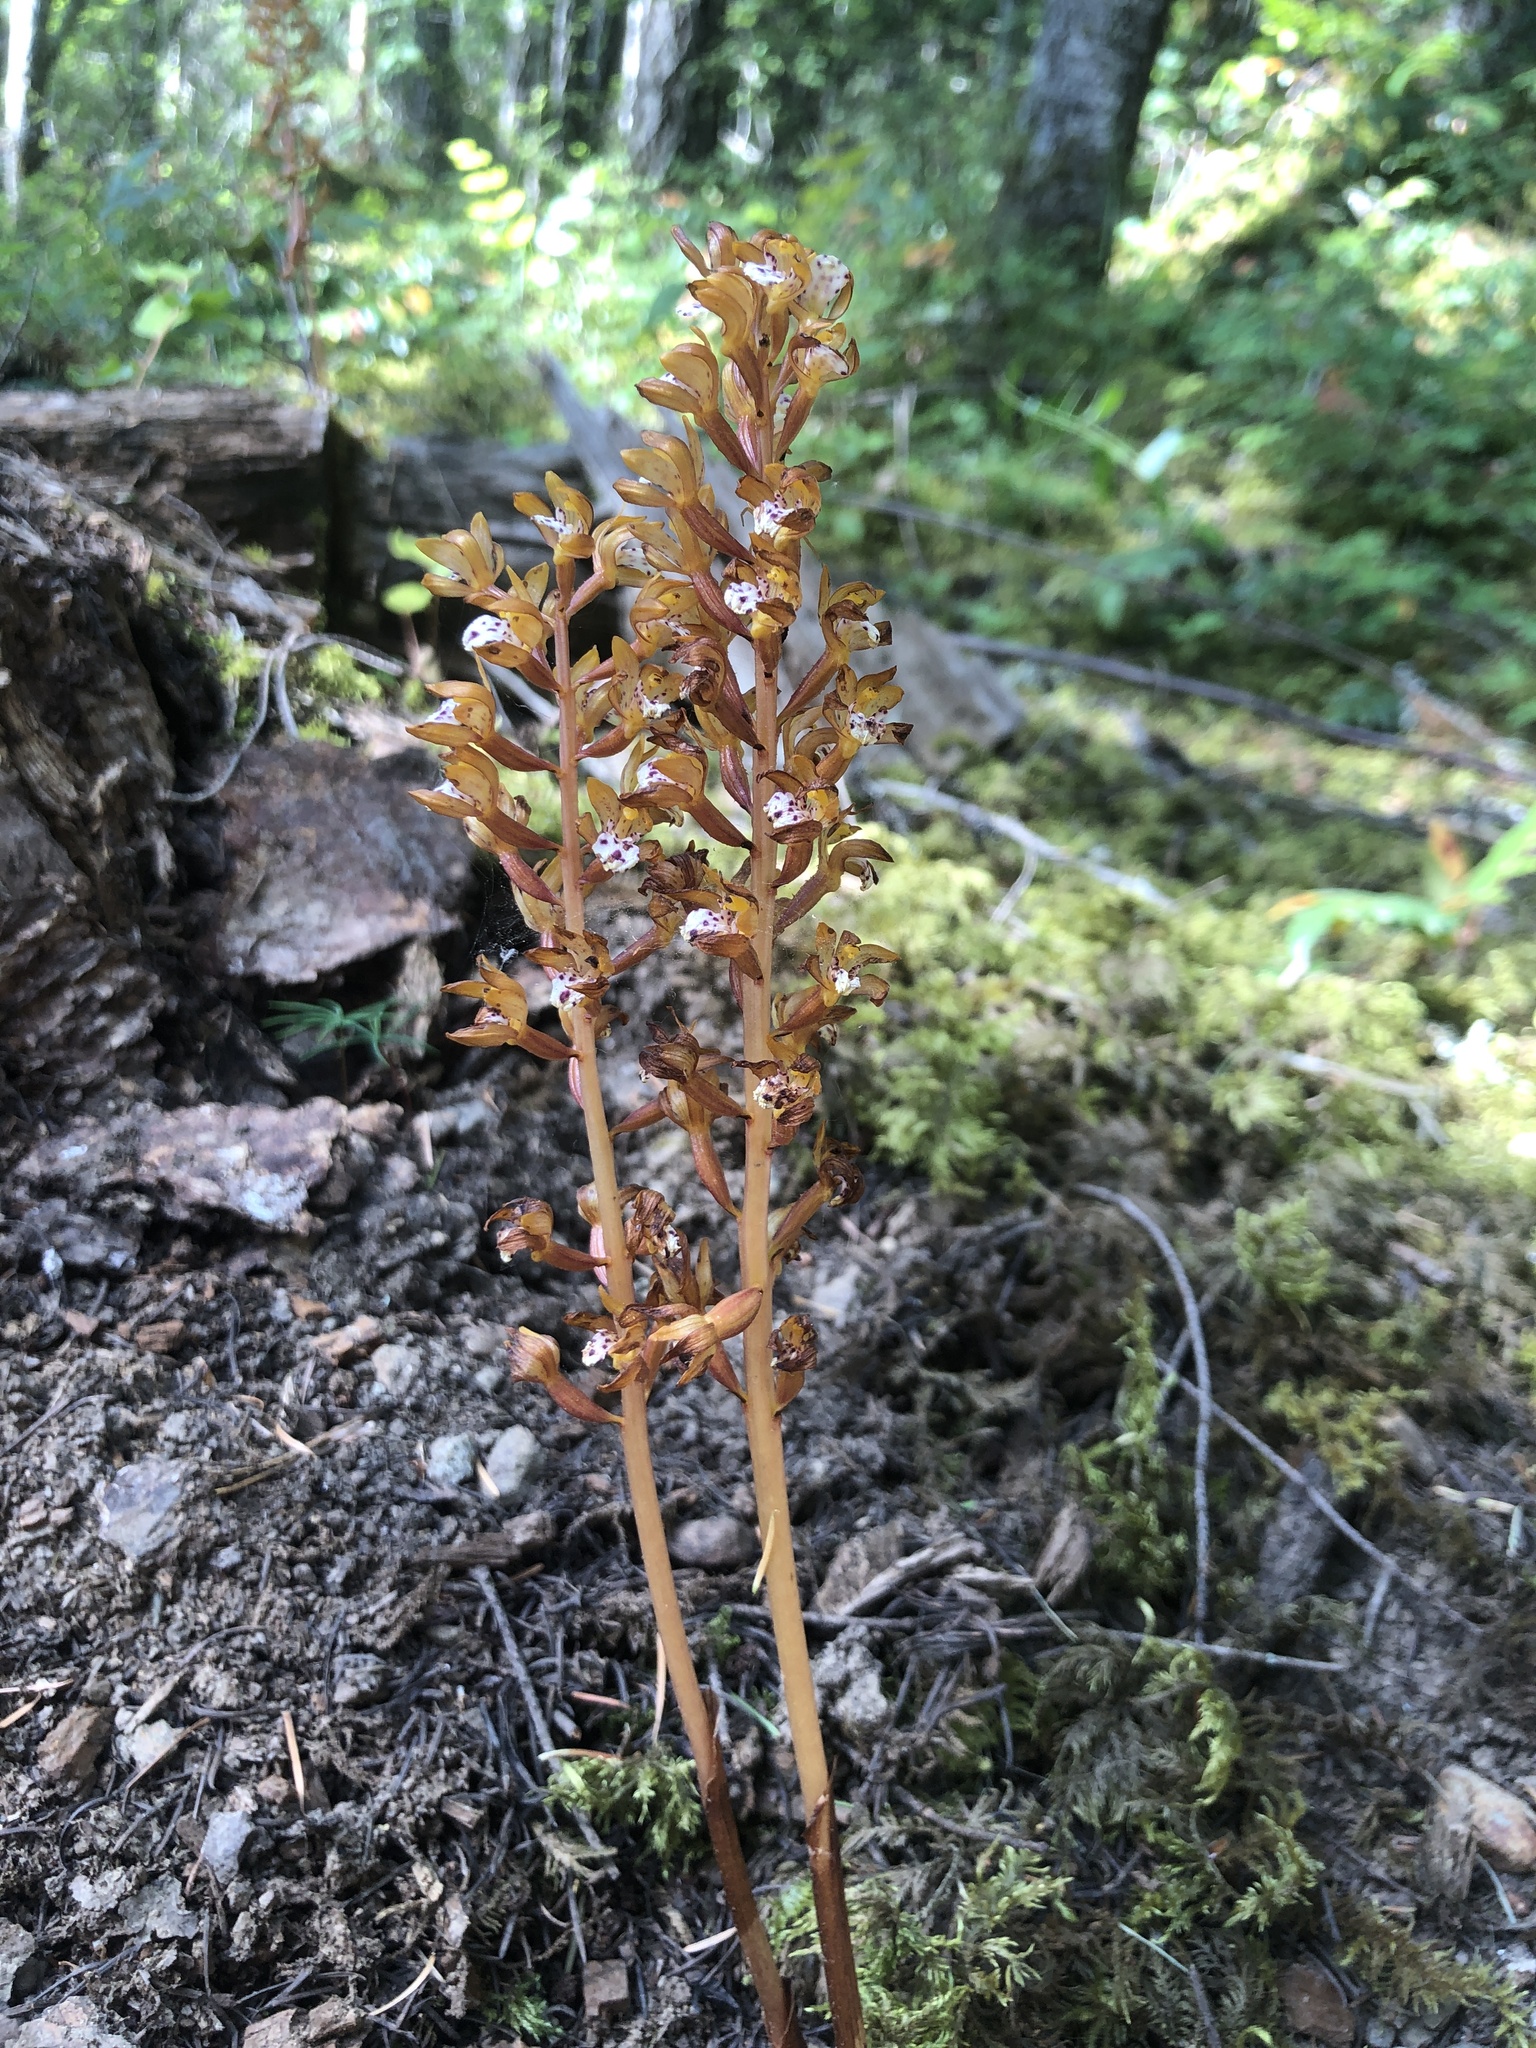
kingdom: Plantae
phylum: Tracheophyta
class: Liliopsida
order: Asparagales
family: Orchidaceae
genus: Corallorhiza
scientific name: Corallorhiza maculata
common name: Spotted coralroot
